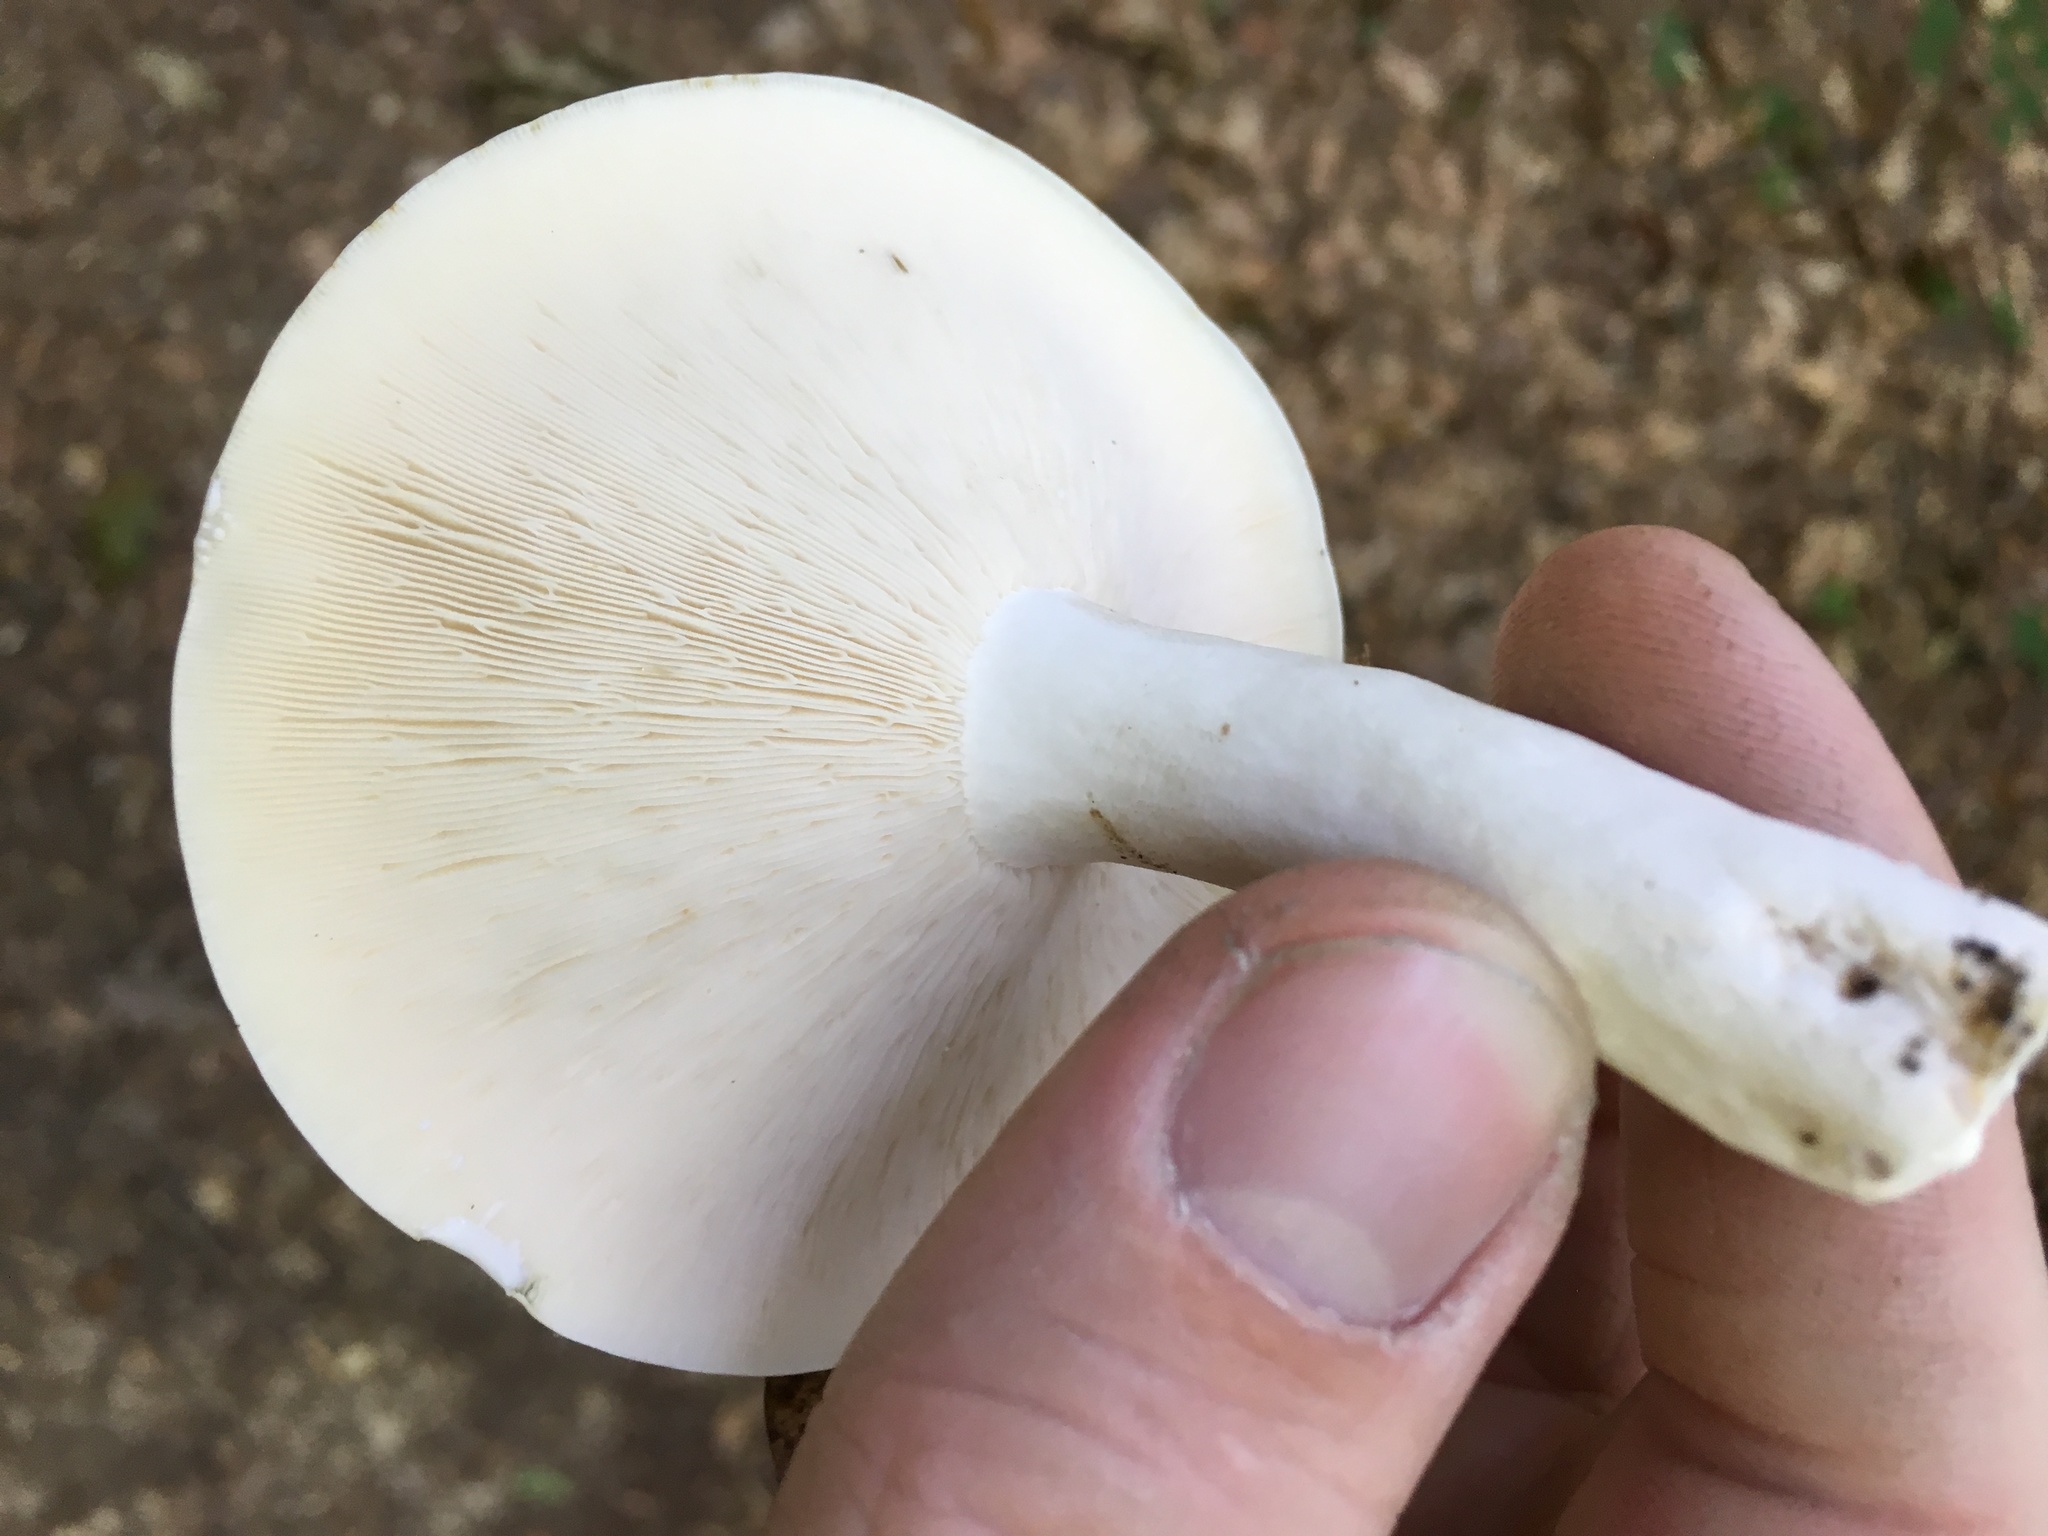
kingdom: Fungi
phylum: Basidiomycota
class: Agaricomycetes
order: Russulales
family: Russulaceae
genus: Lactifluus
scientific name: Lactifluus piperatus
